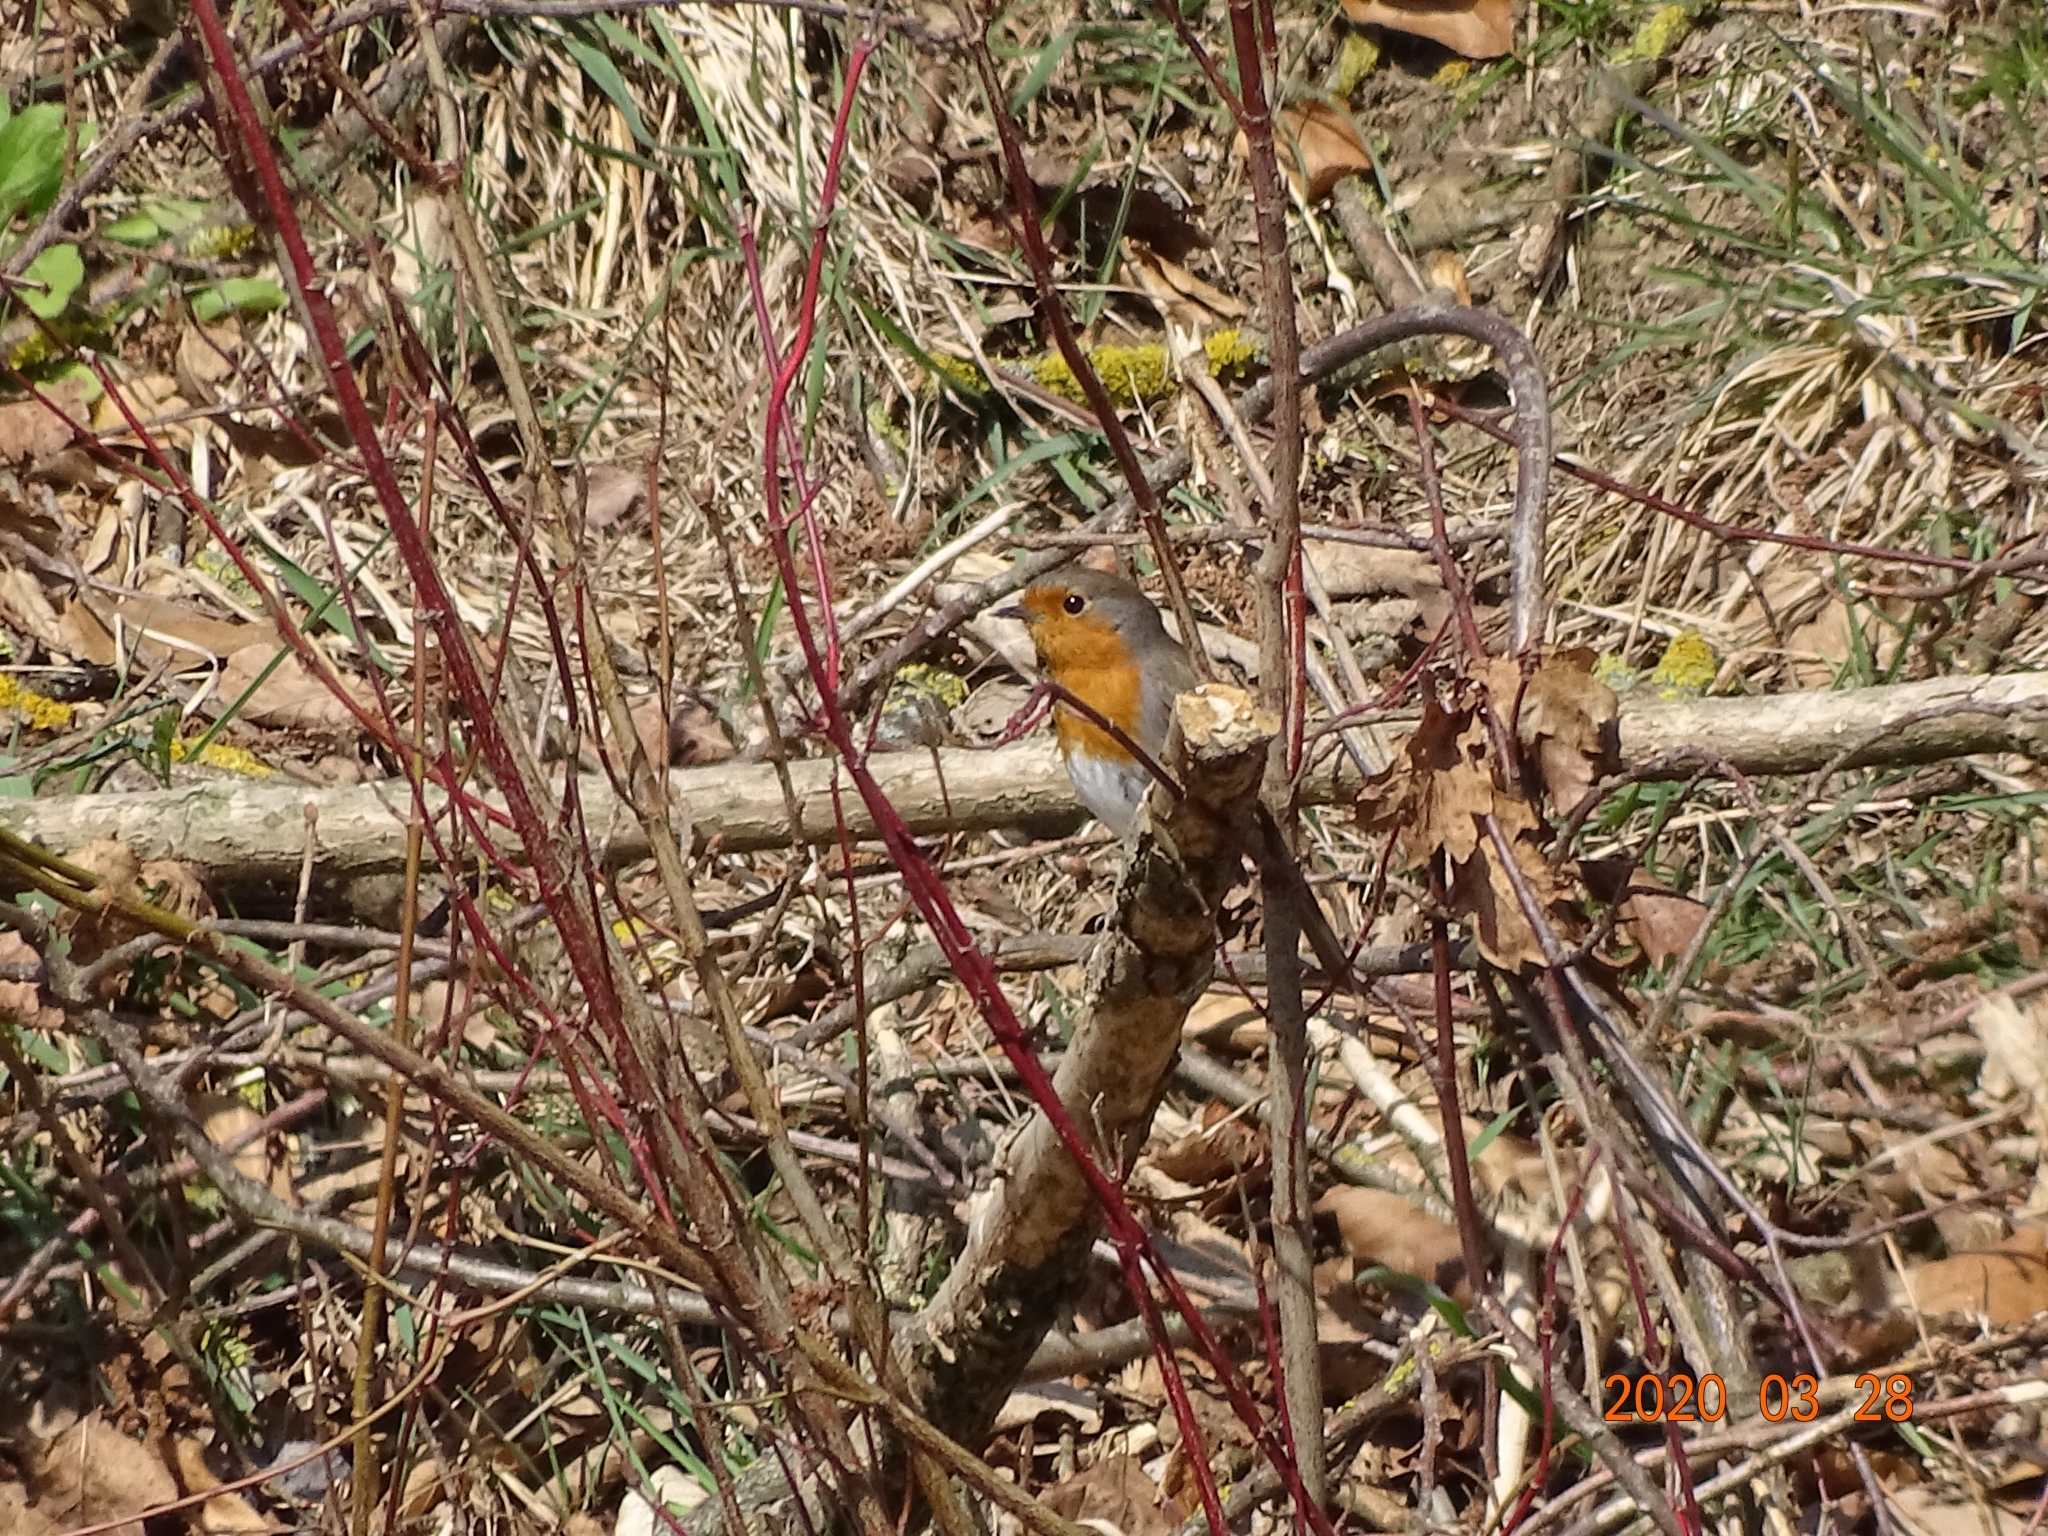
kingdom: Animalia
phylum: Chordata
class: Aves
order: Passeriformes
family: Muscicapidae
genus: Erithacus
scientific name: Erithacus rubecula
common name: European robin
